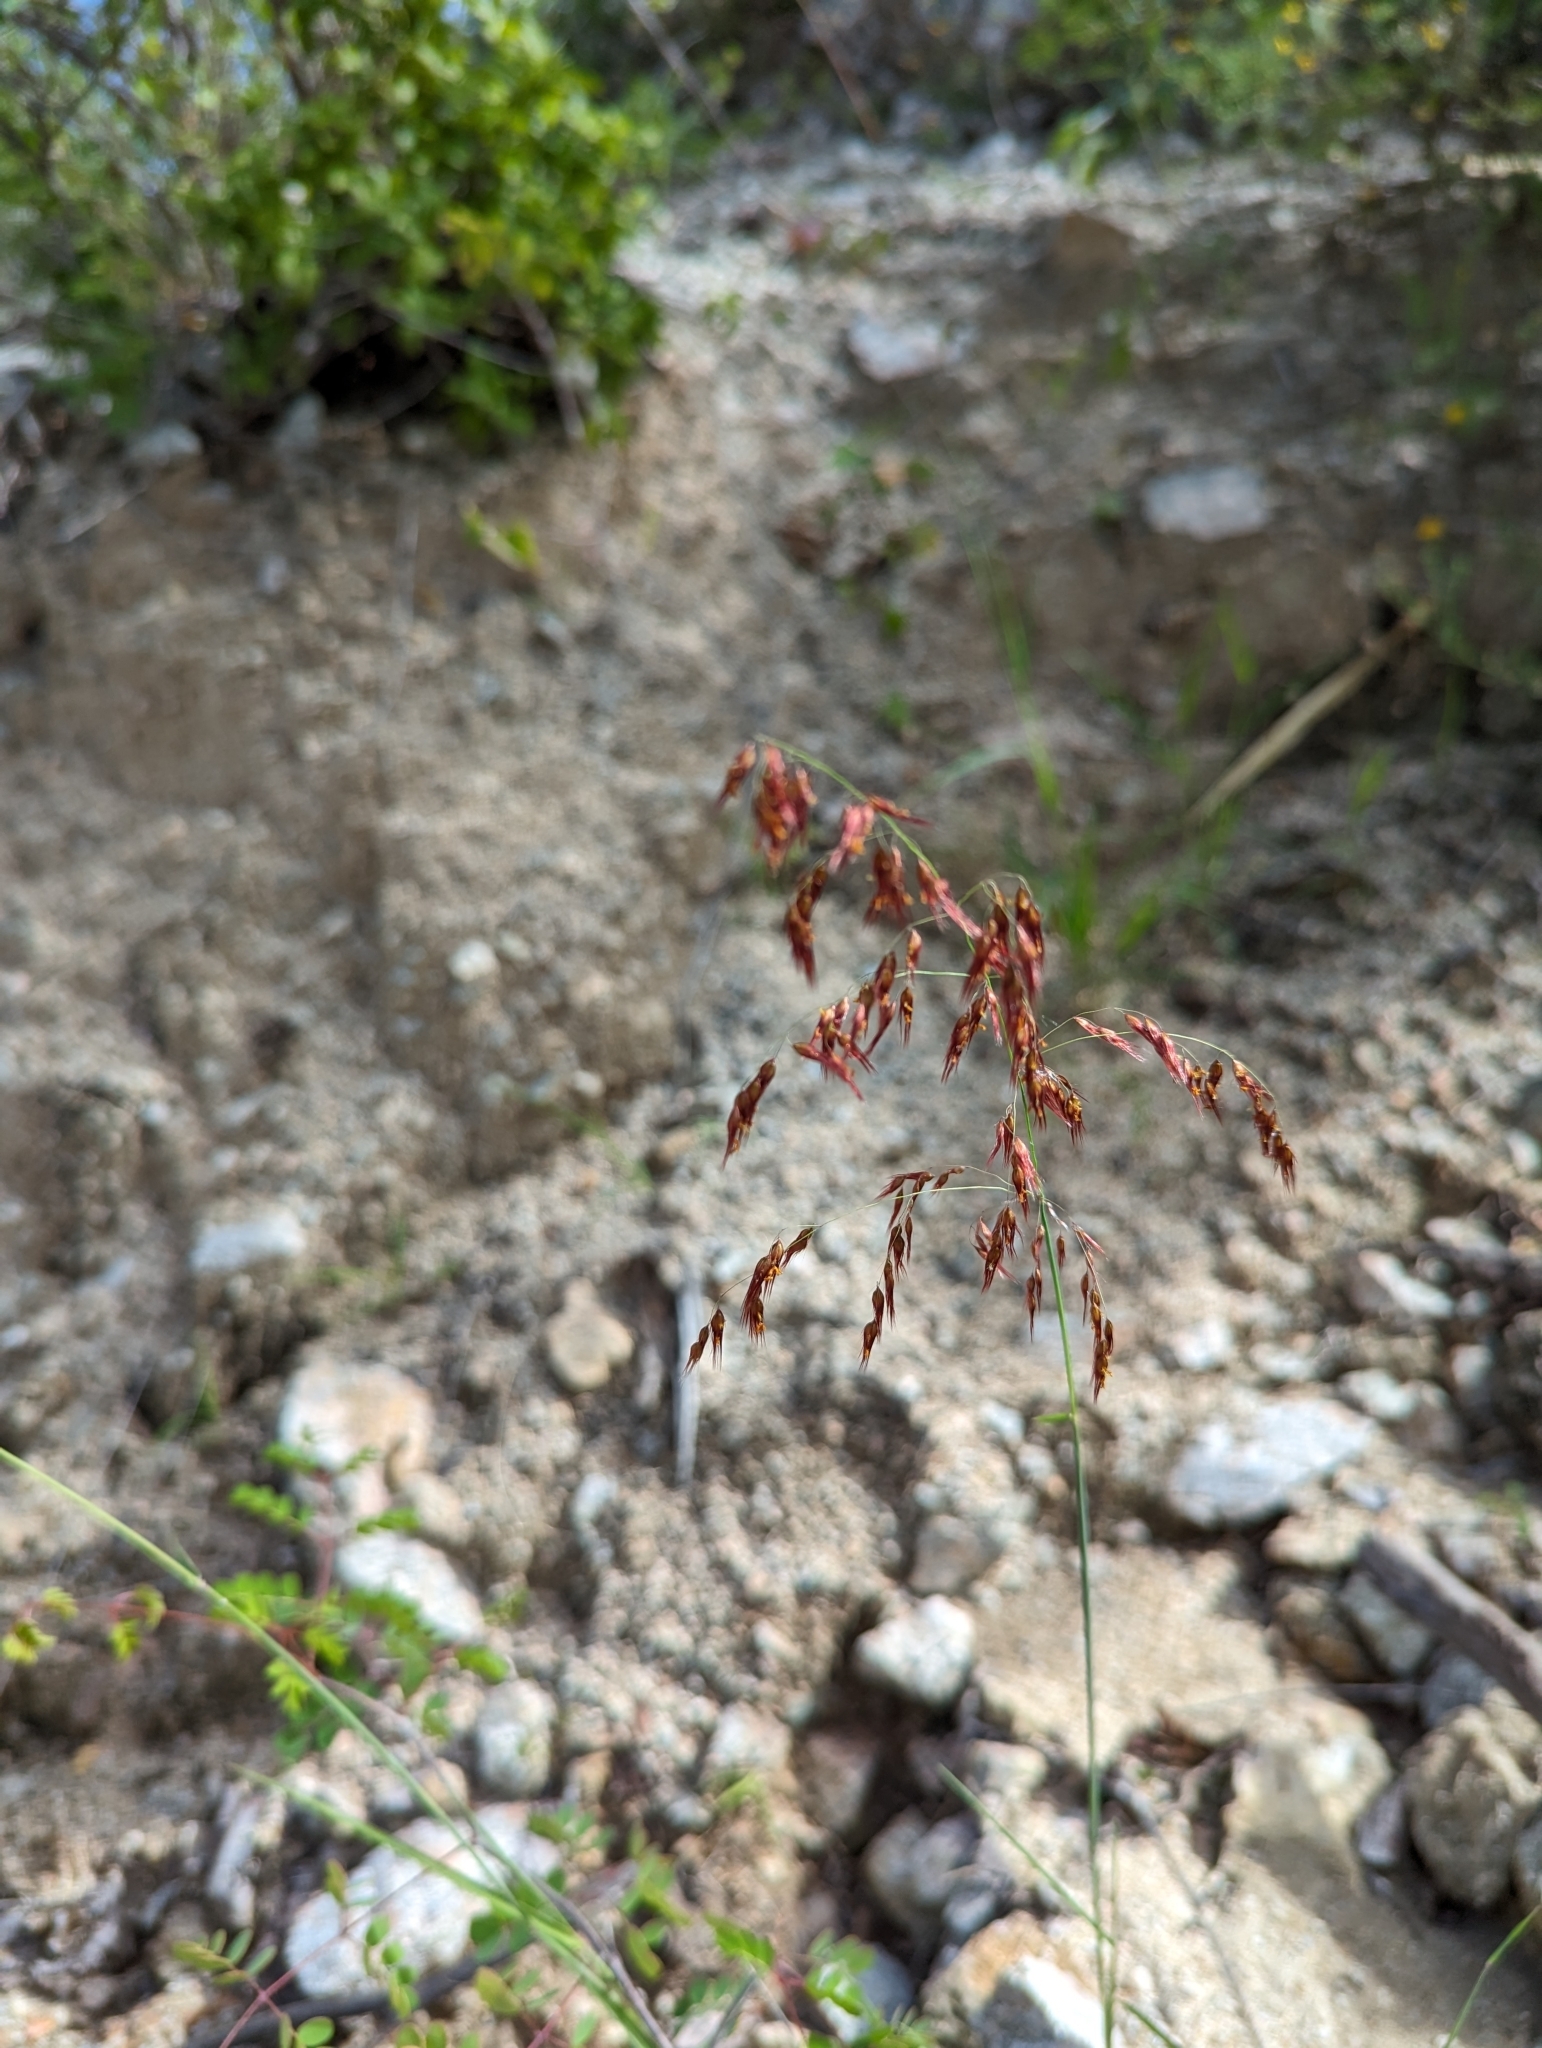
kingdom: Plantae
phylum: Tracheophyta
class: Liliopsida
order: Poales
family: Poaceae
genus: Melinis
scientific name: Melinis repens
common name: Rose natal grass
